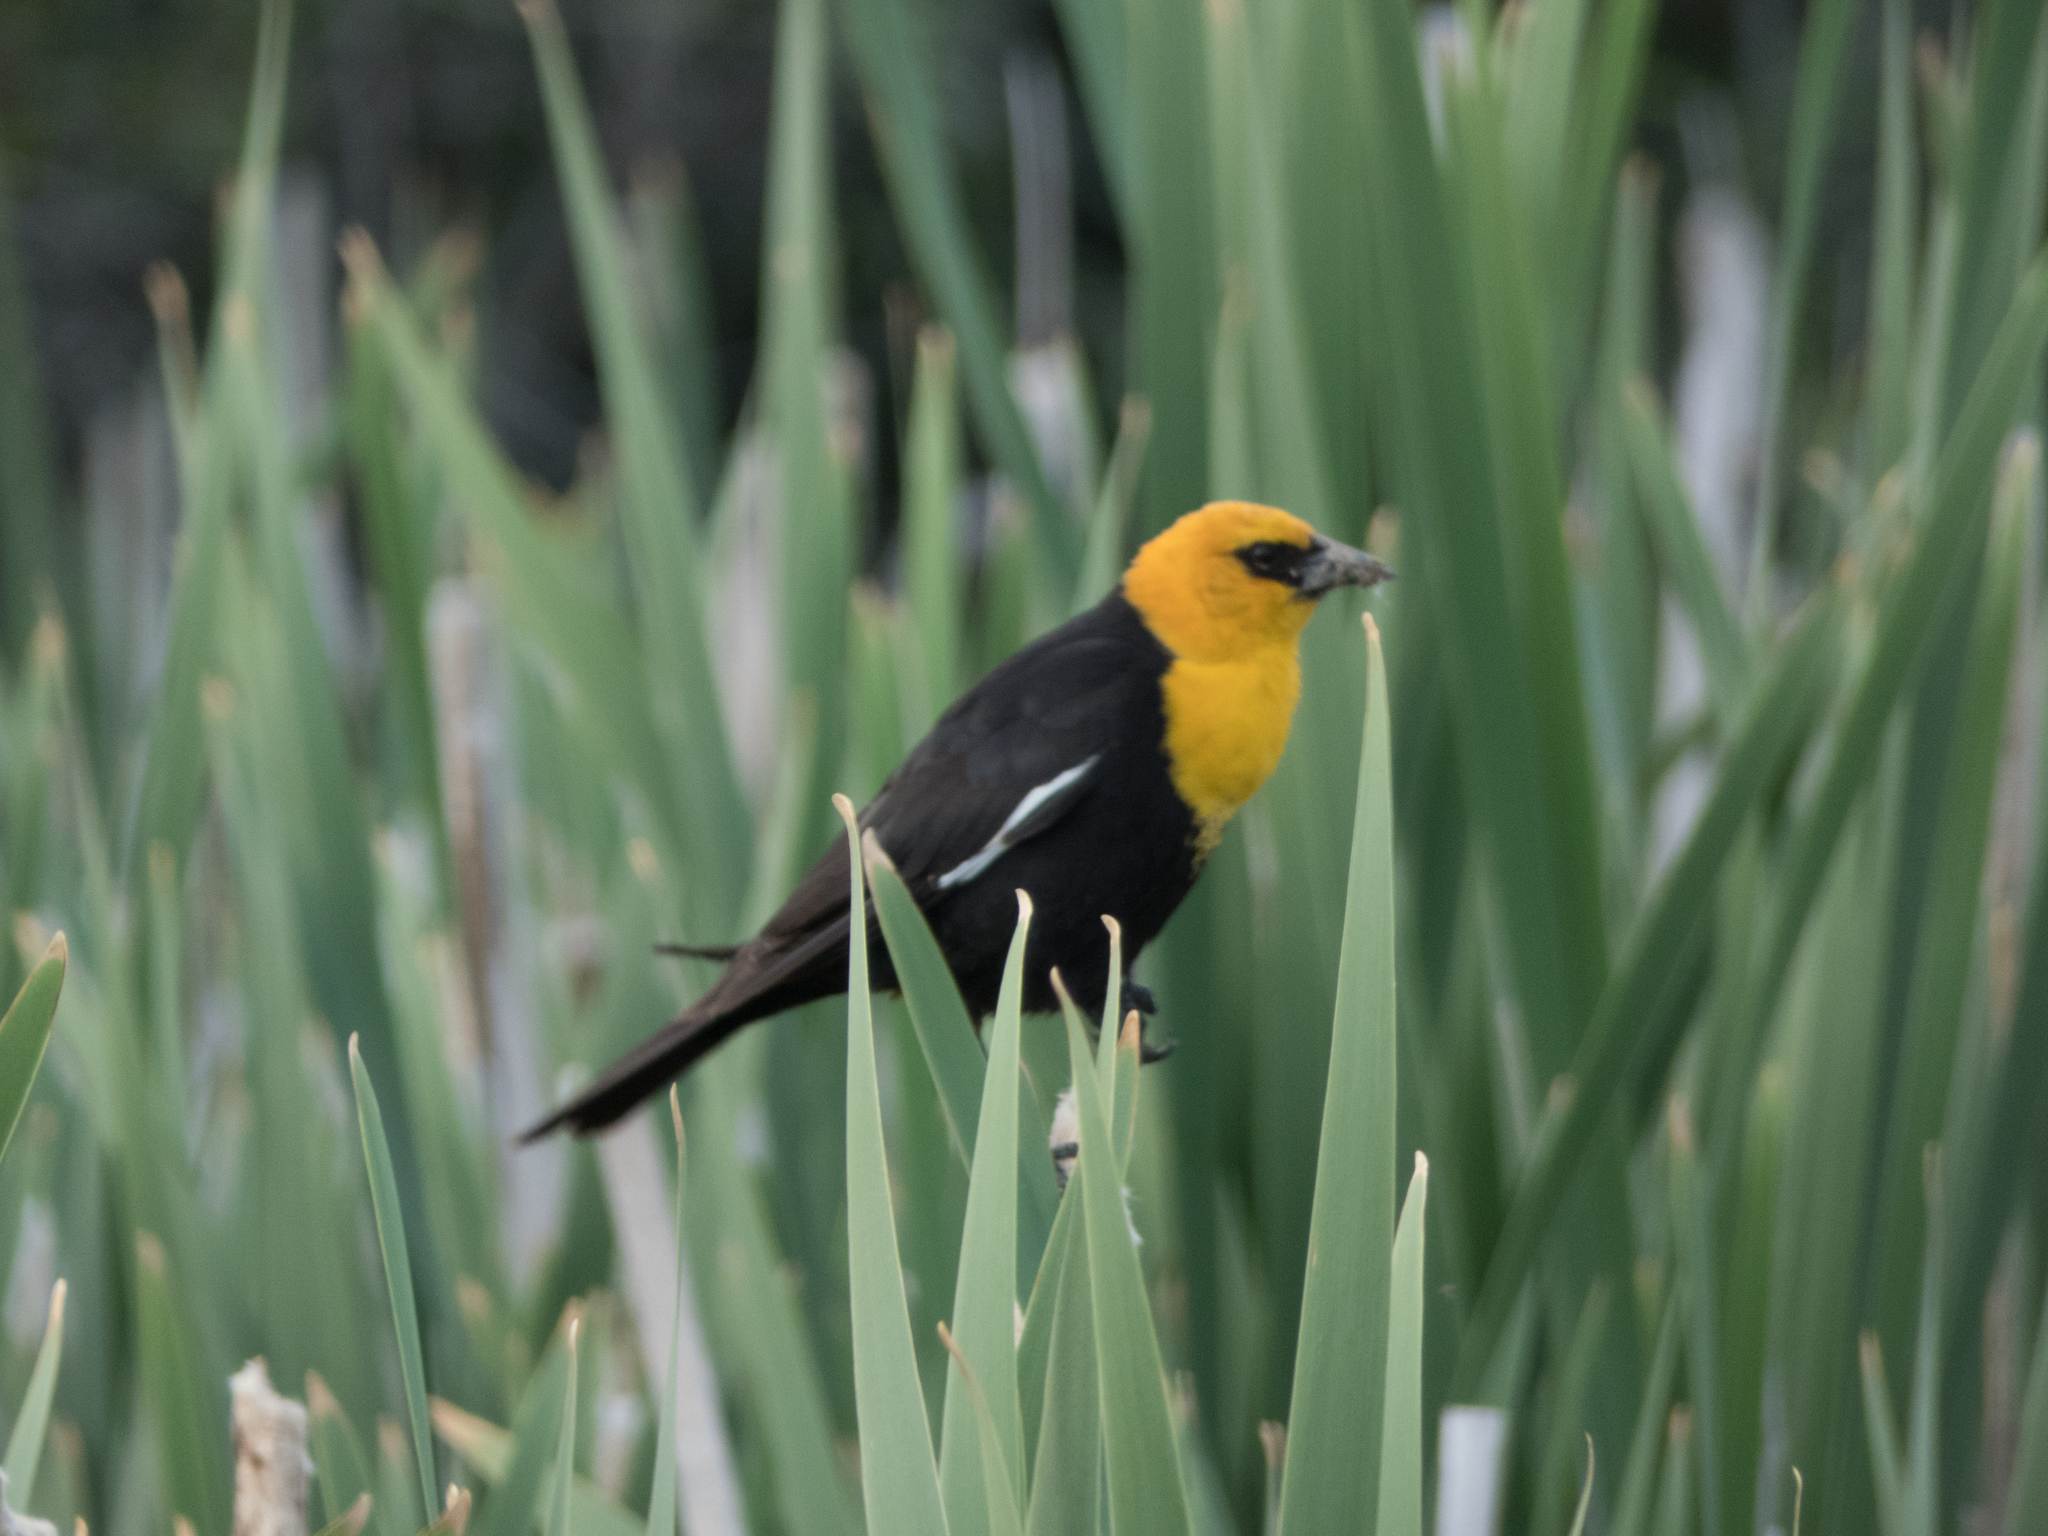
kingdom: Animalia
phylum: Chordata
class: Aves
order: Passeriformes
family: Icteridae
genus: Xanthocephalus
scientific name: Xanthocephalus xanthocephalus
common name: Yellow-headed blackbird
